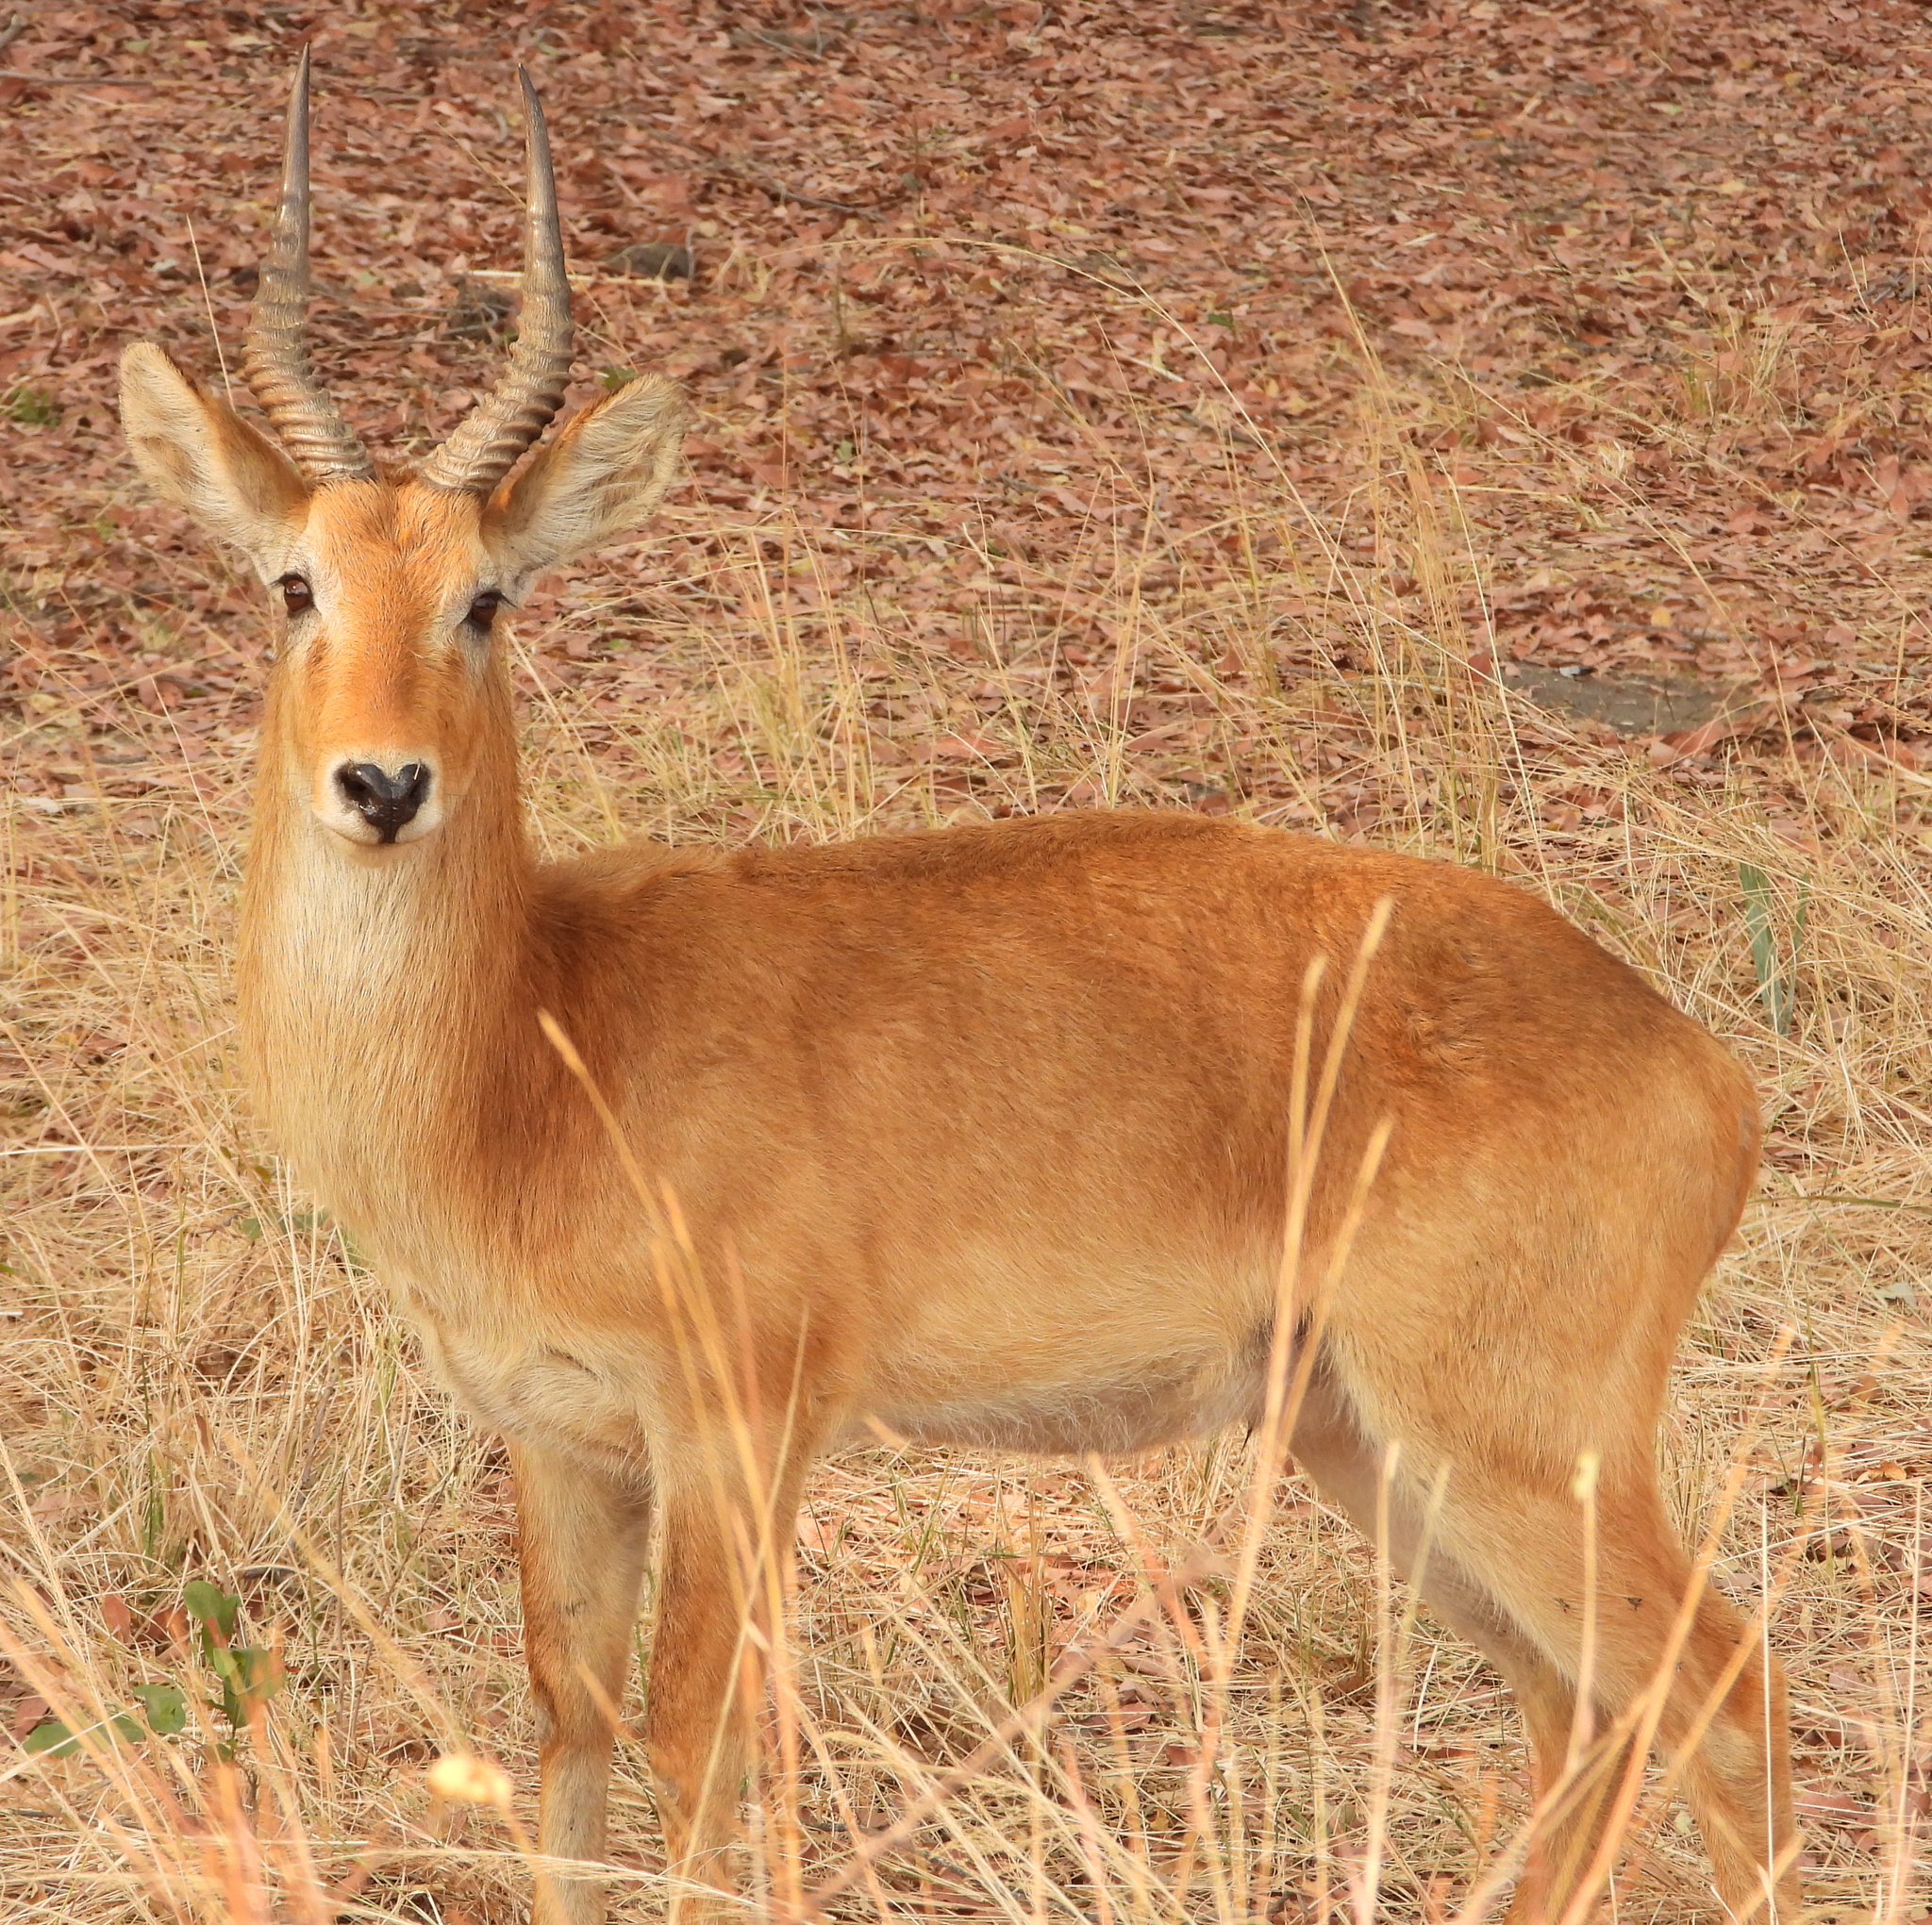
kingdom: Animalia
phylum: Chordata
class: Mammalia
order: Artiodactyla
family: Bovidae
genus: Kobus
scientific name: Kobus vardonii
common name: Puku
